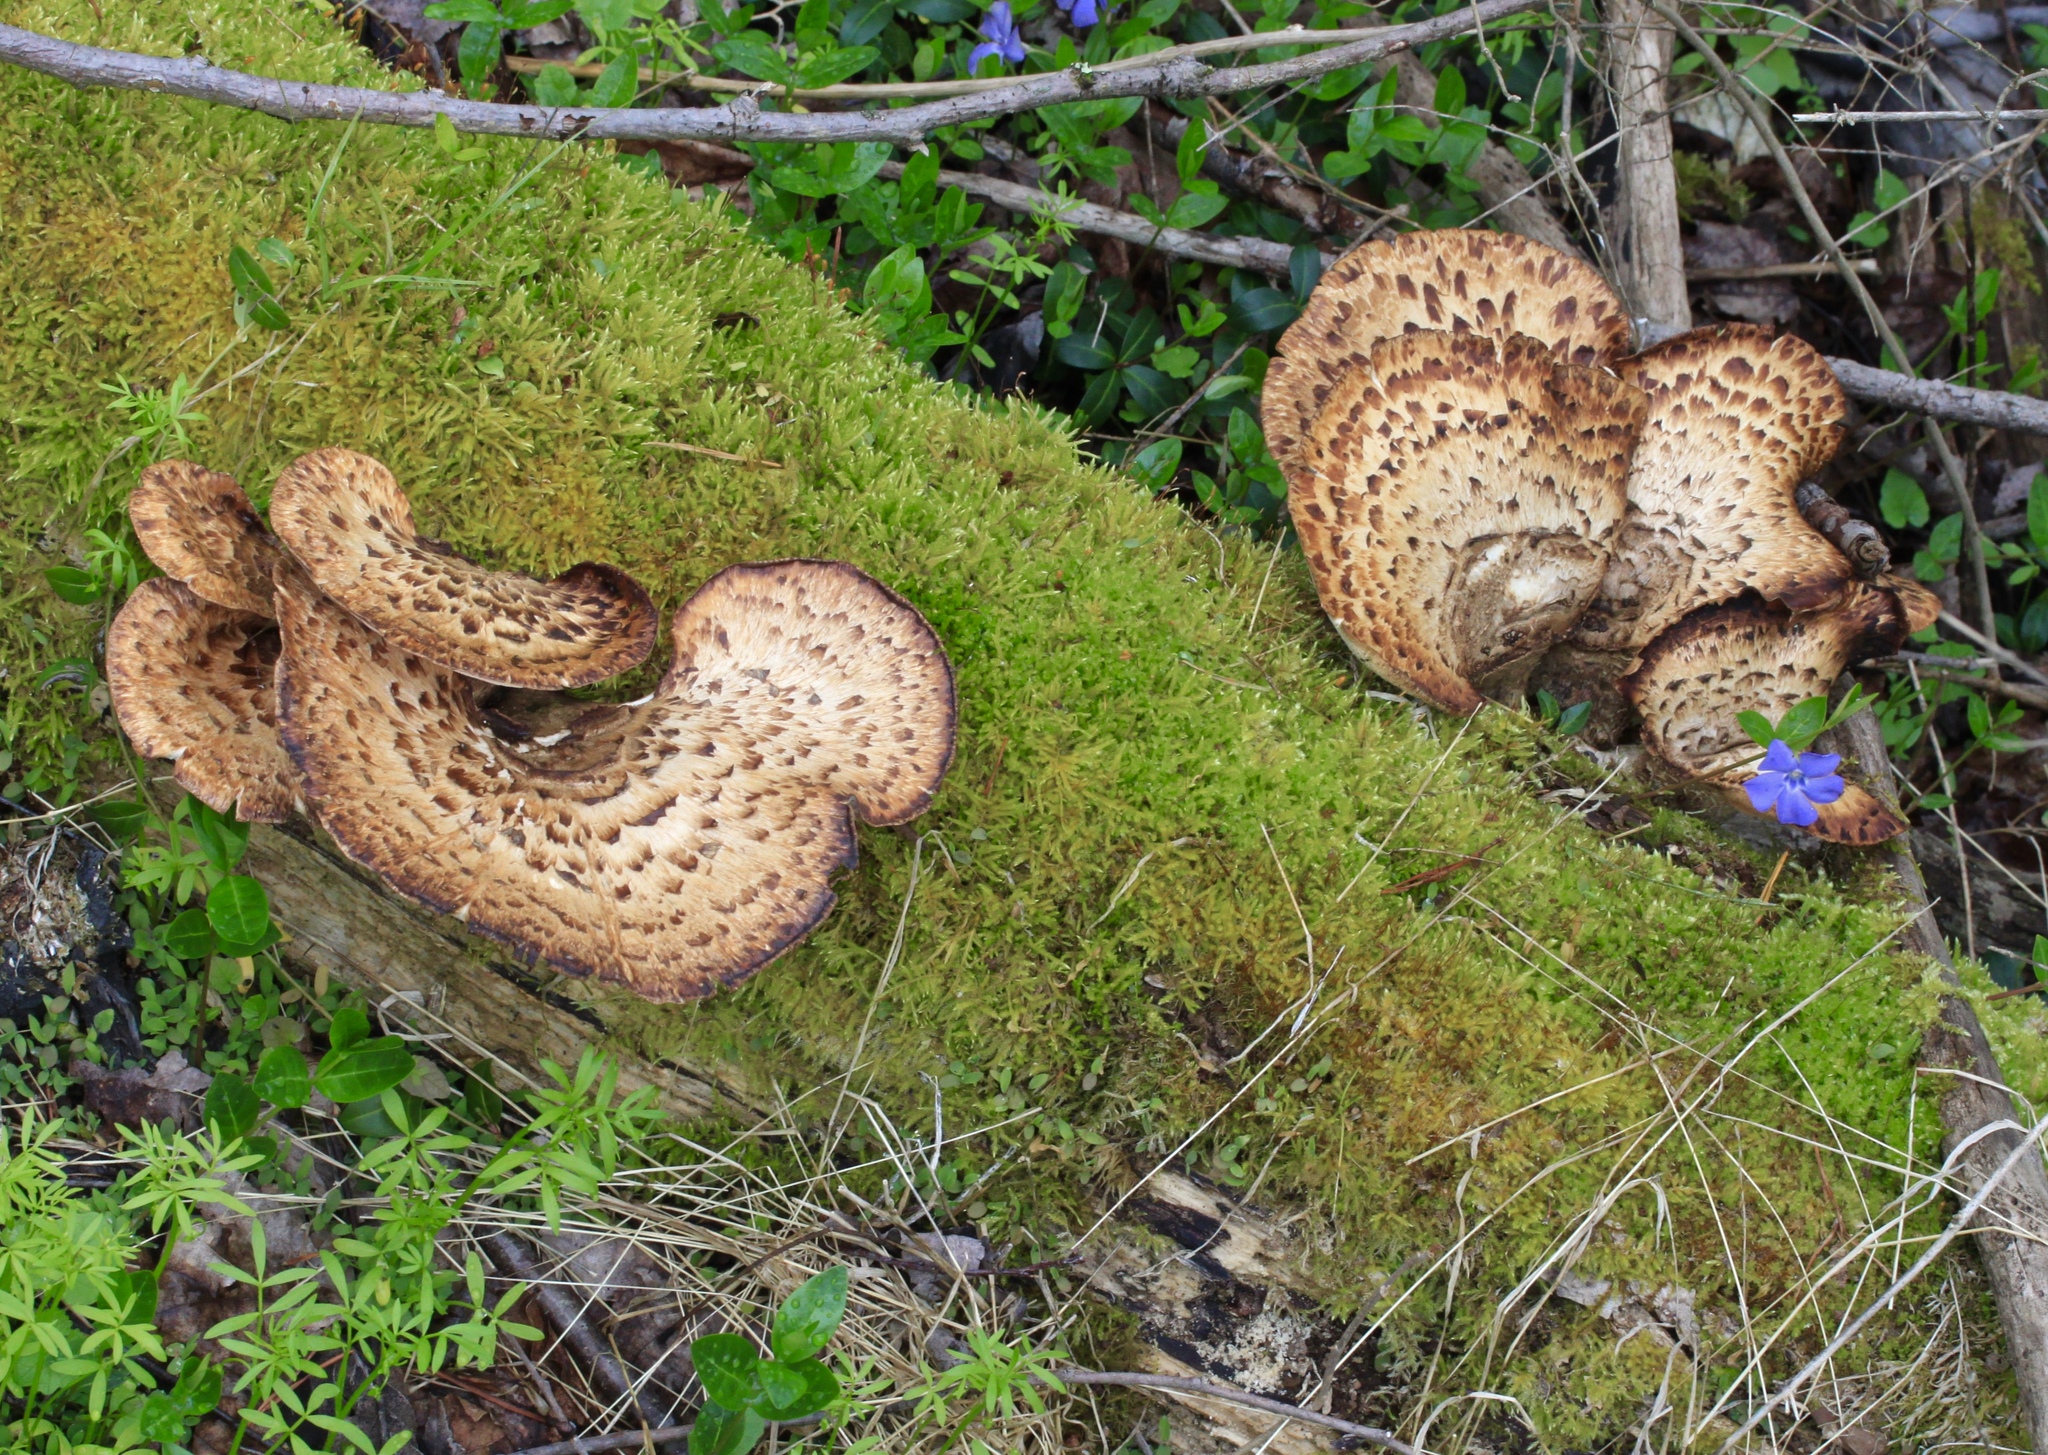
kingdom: Fungi
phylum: Basidiomycota
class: Agaricomycetes
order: Polyporales
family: Polyporaceae
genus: Cerioporus
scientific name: Cerioporus squamosus
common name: Dryad's saddle
